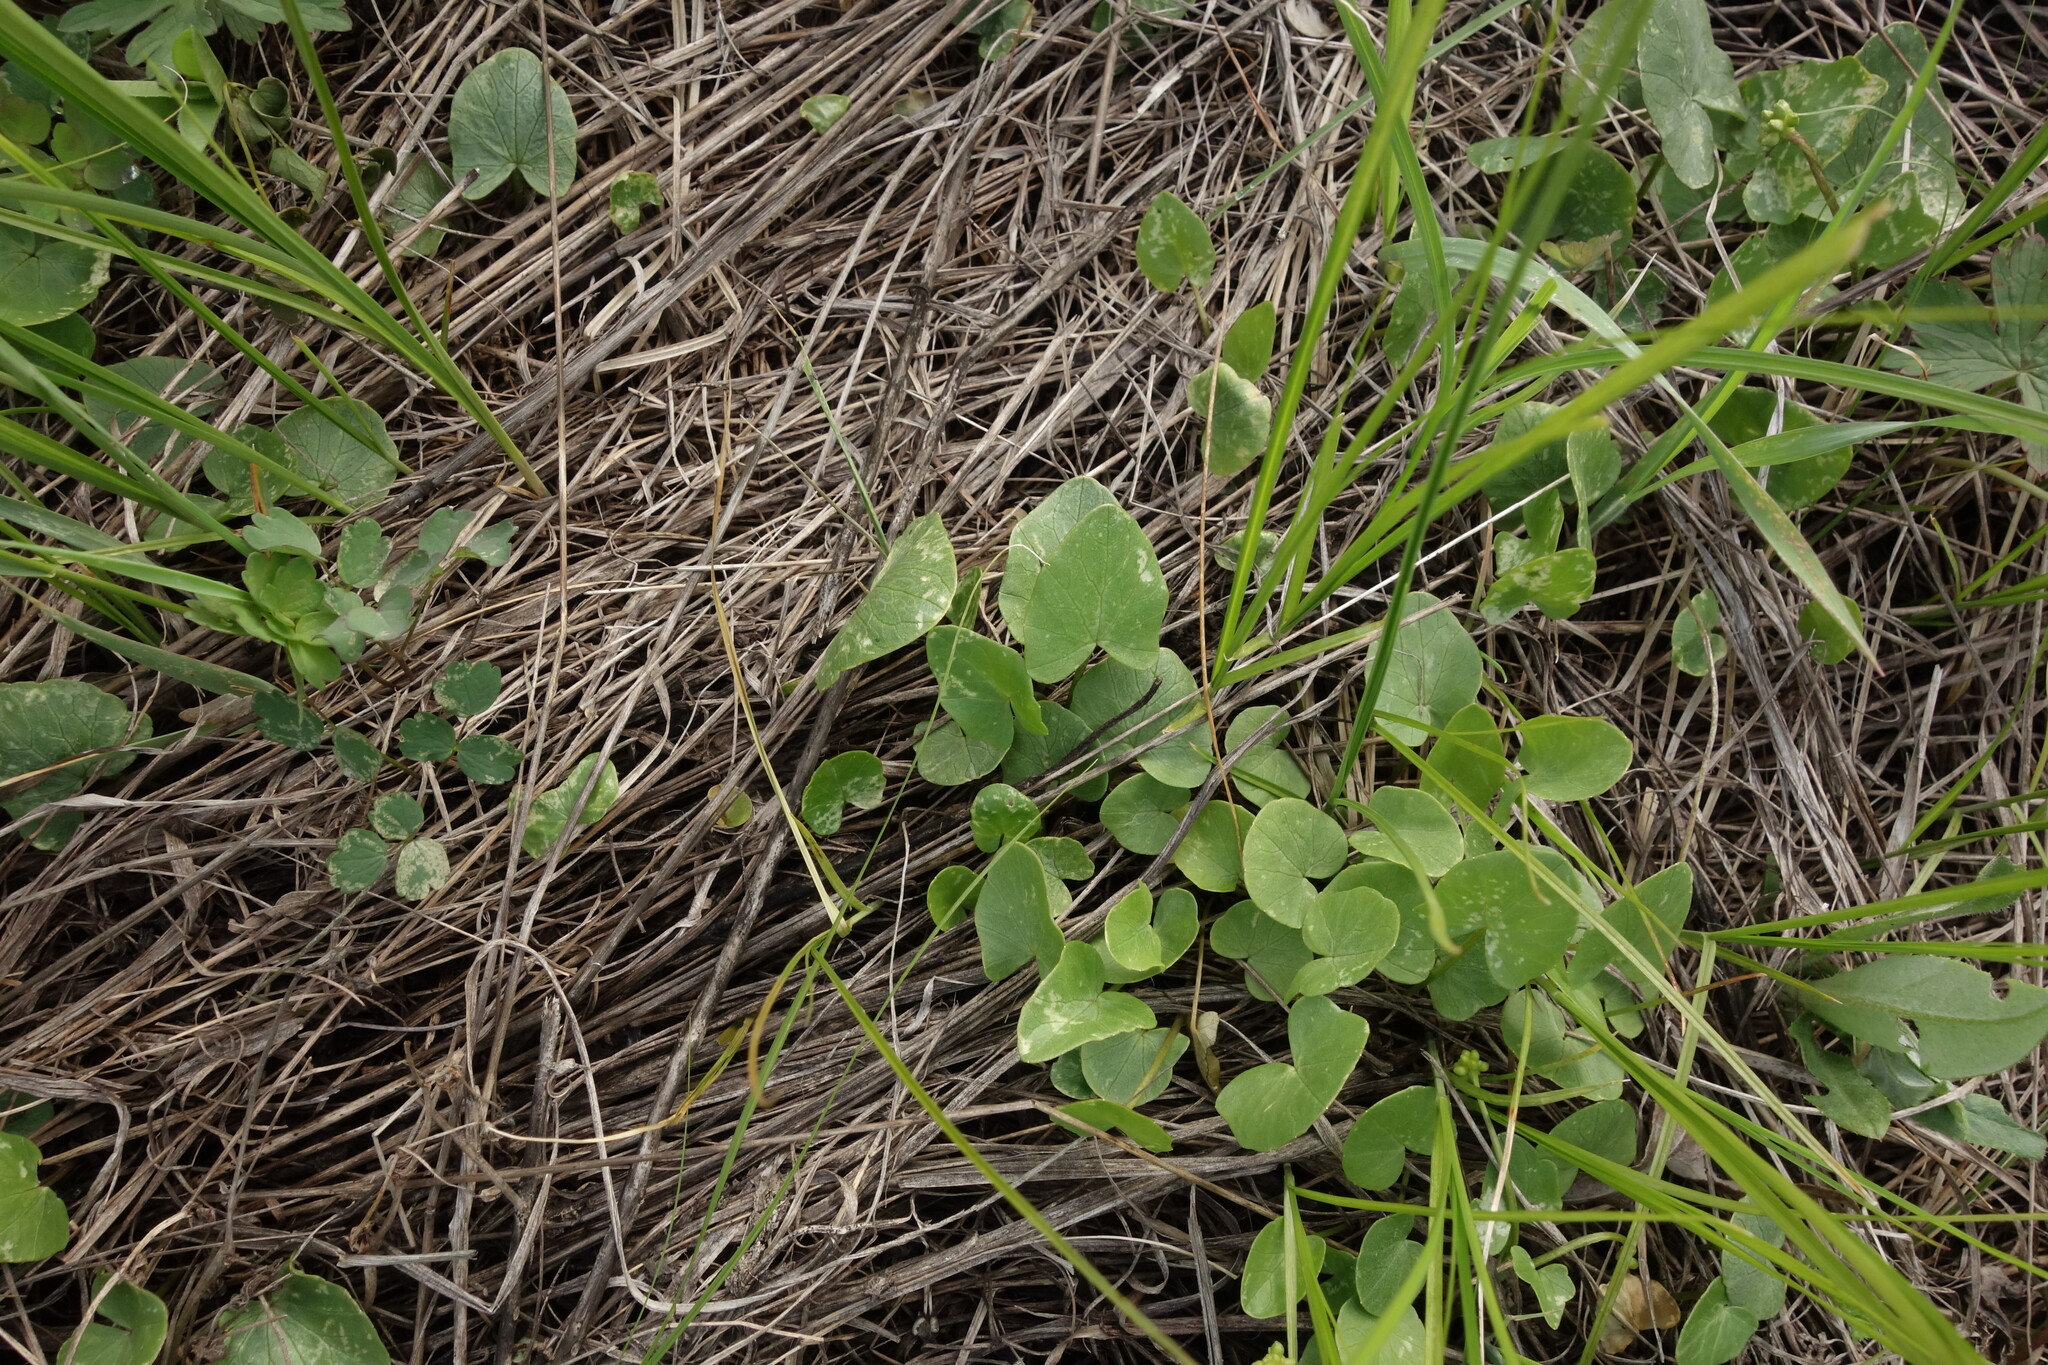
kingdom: Plantae
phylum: Tracheophyta
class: Magnoliopsida
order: Ranunculales
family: Ranunculaceae
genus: Ficaria
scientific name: Ficaria verna
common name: Lesser celandine
